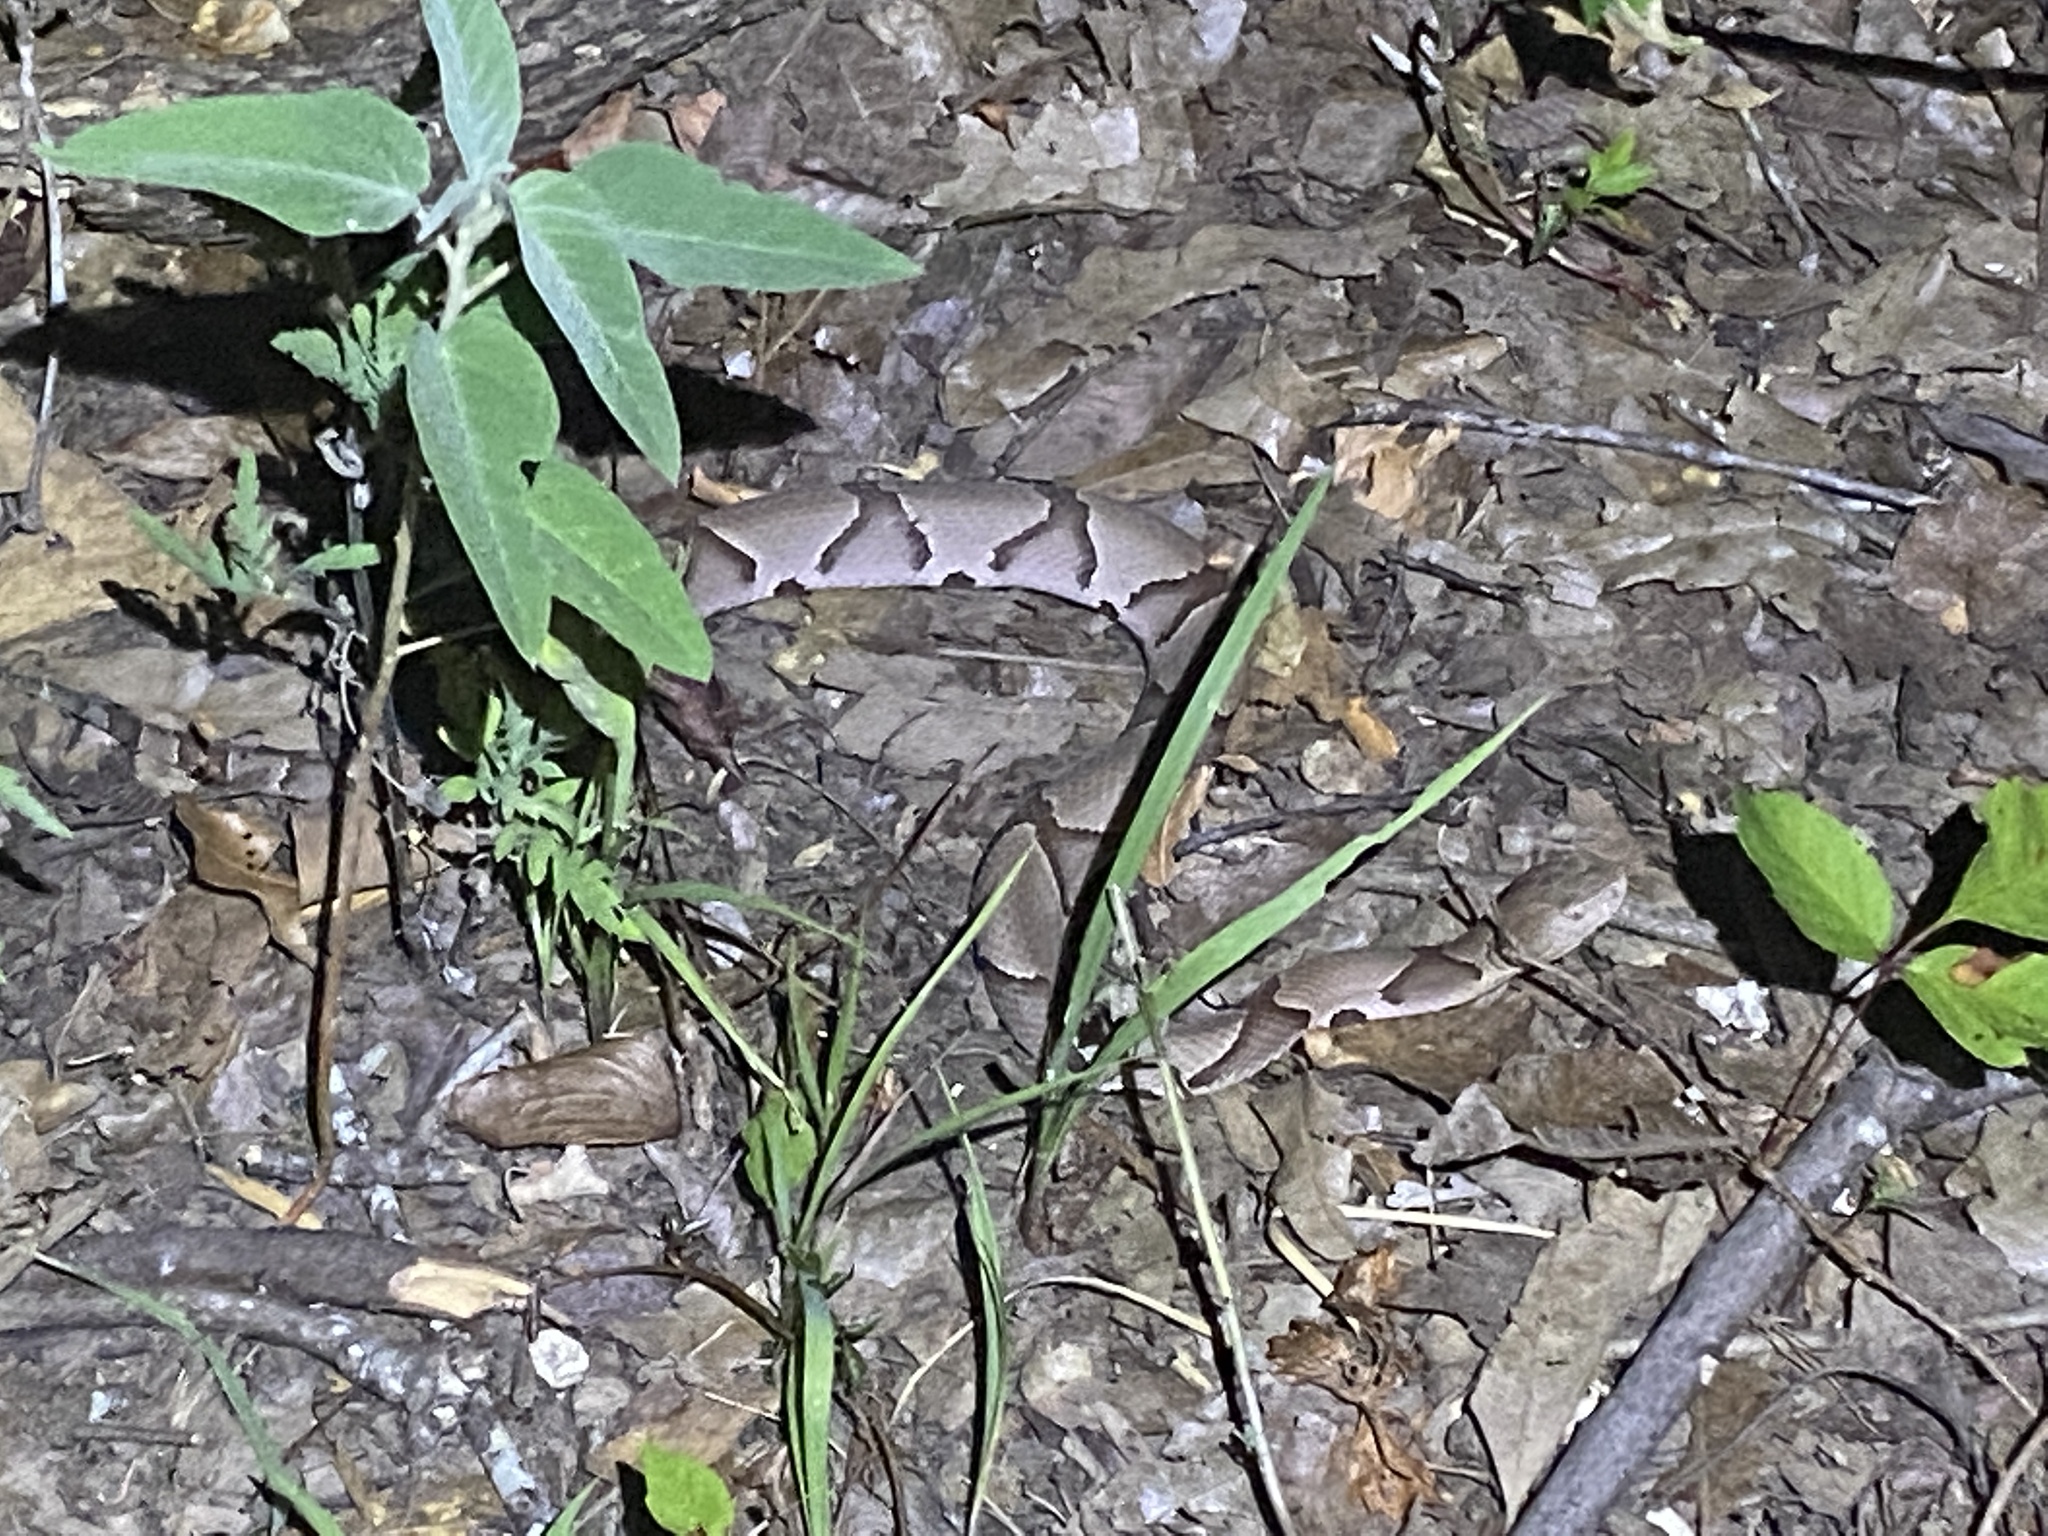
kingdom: Animalia
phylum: Chordata
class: Squamata
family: Viperidae
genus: Agkistrodon
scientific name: Agkistrodon contortrix
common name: Northern copperhead
